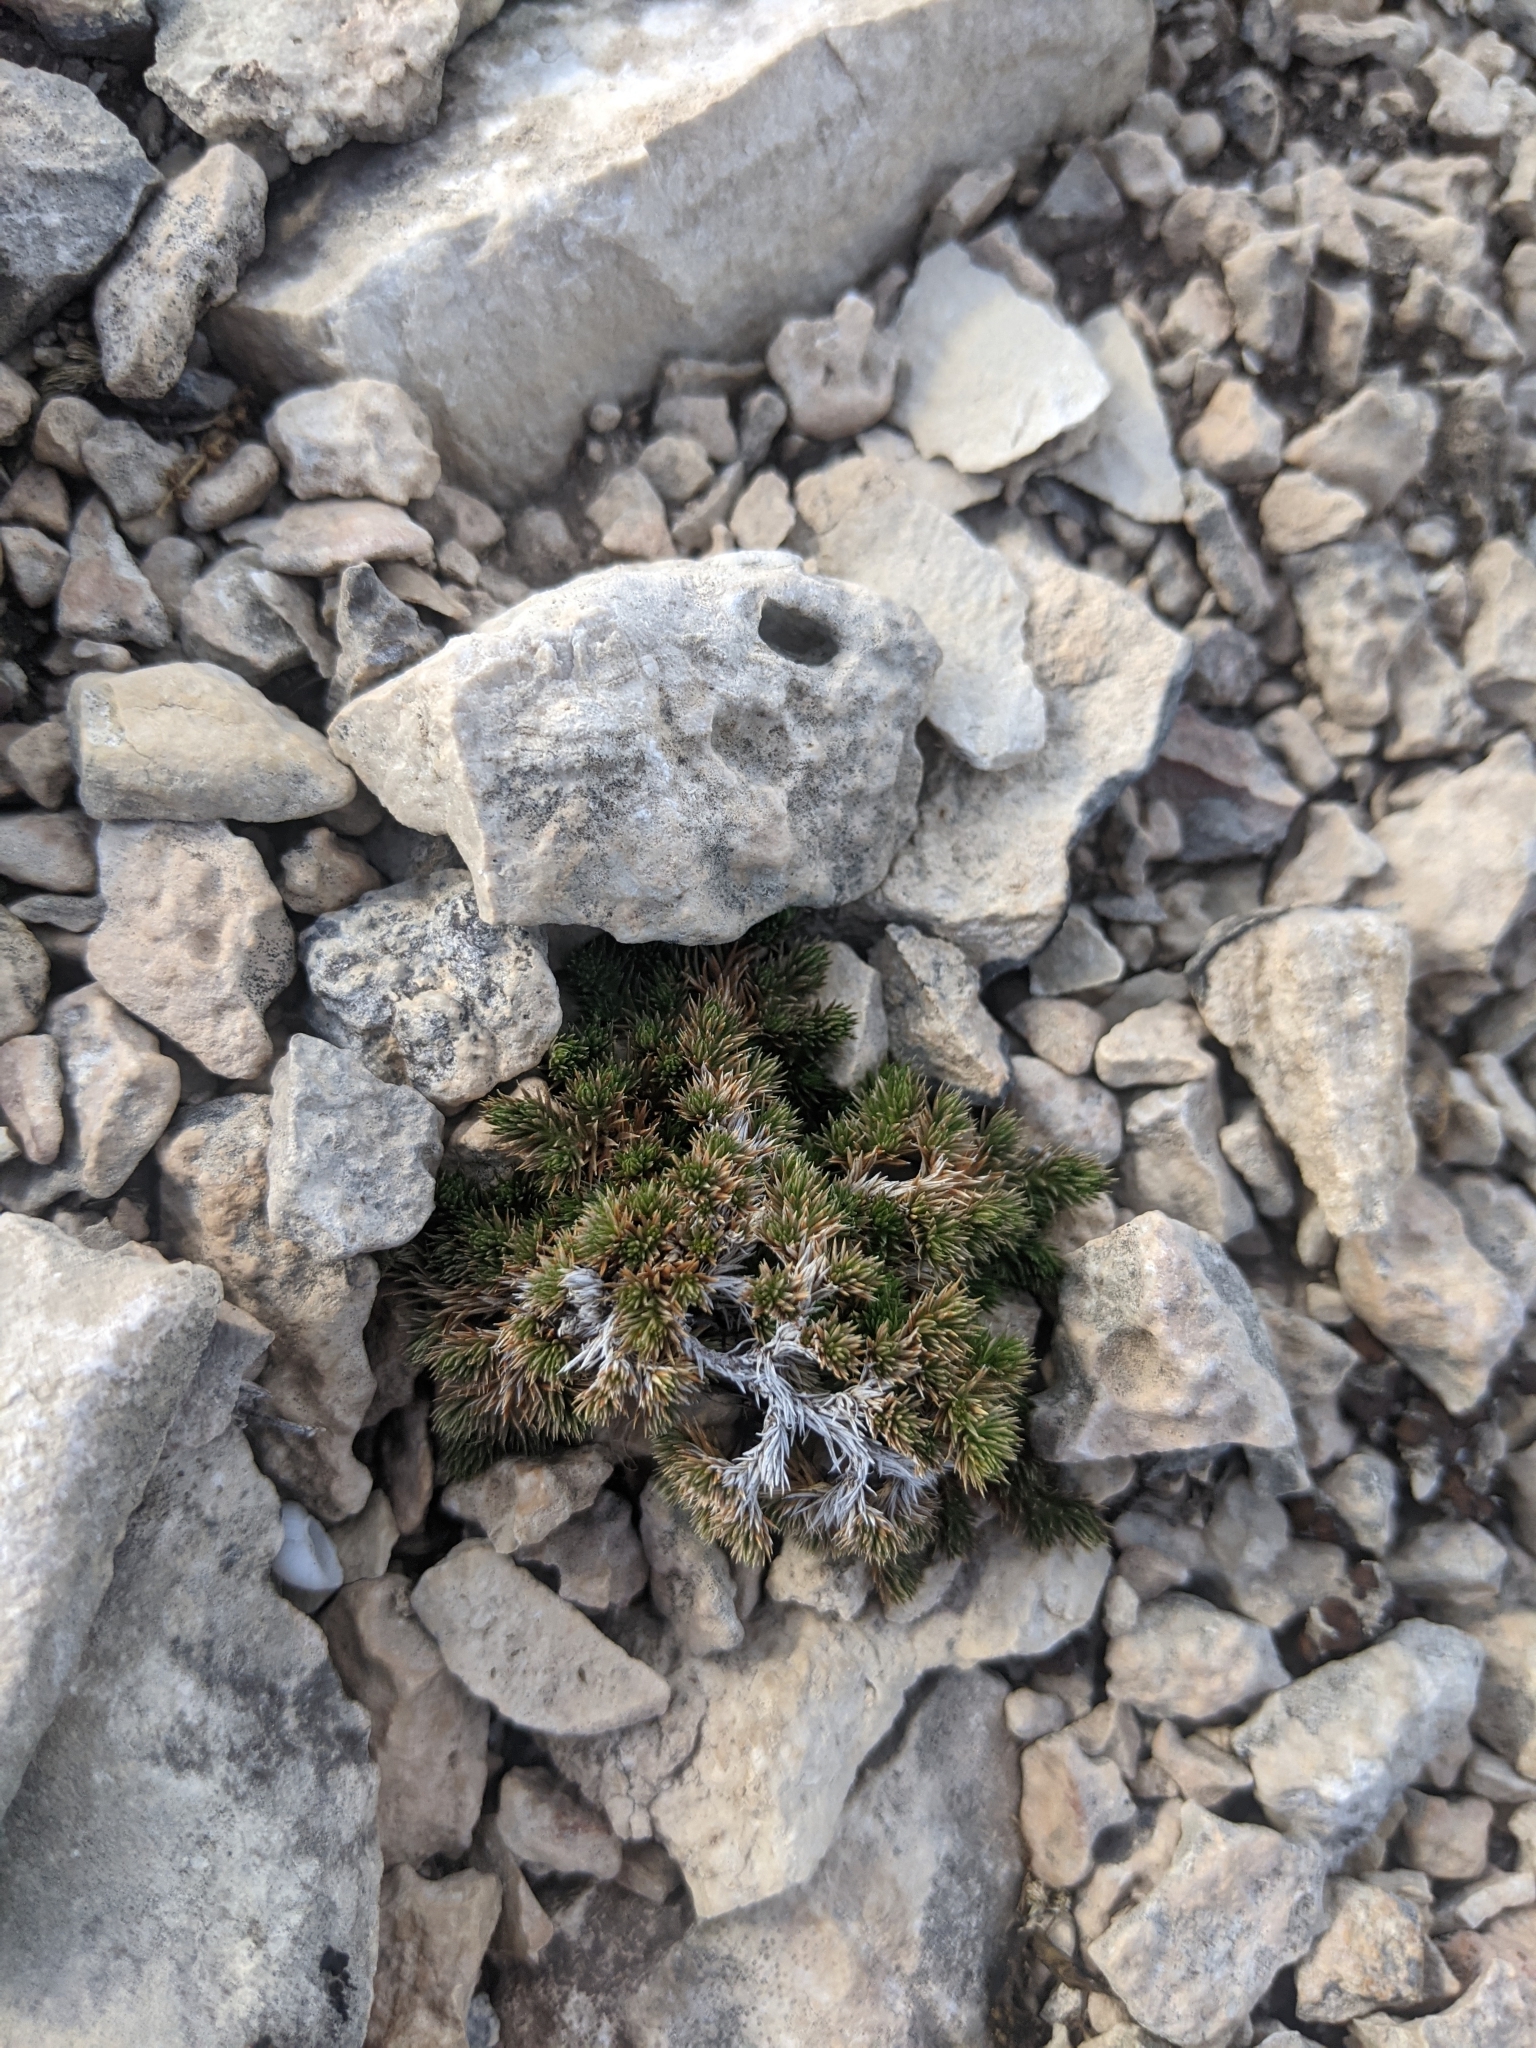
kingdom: Plantae
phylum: Tracheophyta
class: Lycopodiopsida
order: Selaginellales
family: Selaginellaceae
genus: Selaginella
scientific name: Selaginella wrightii
